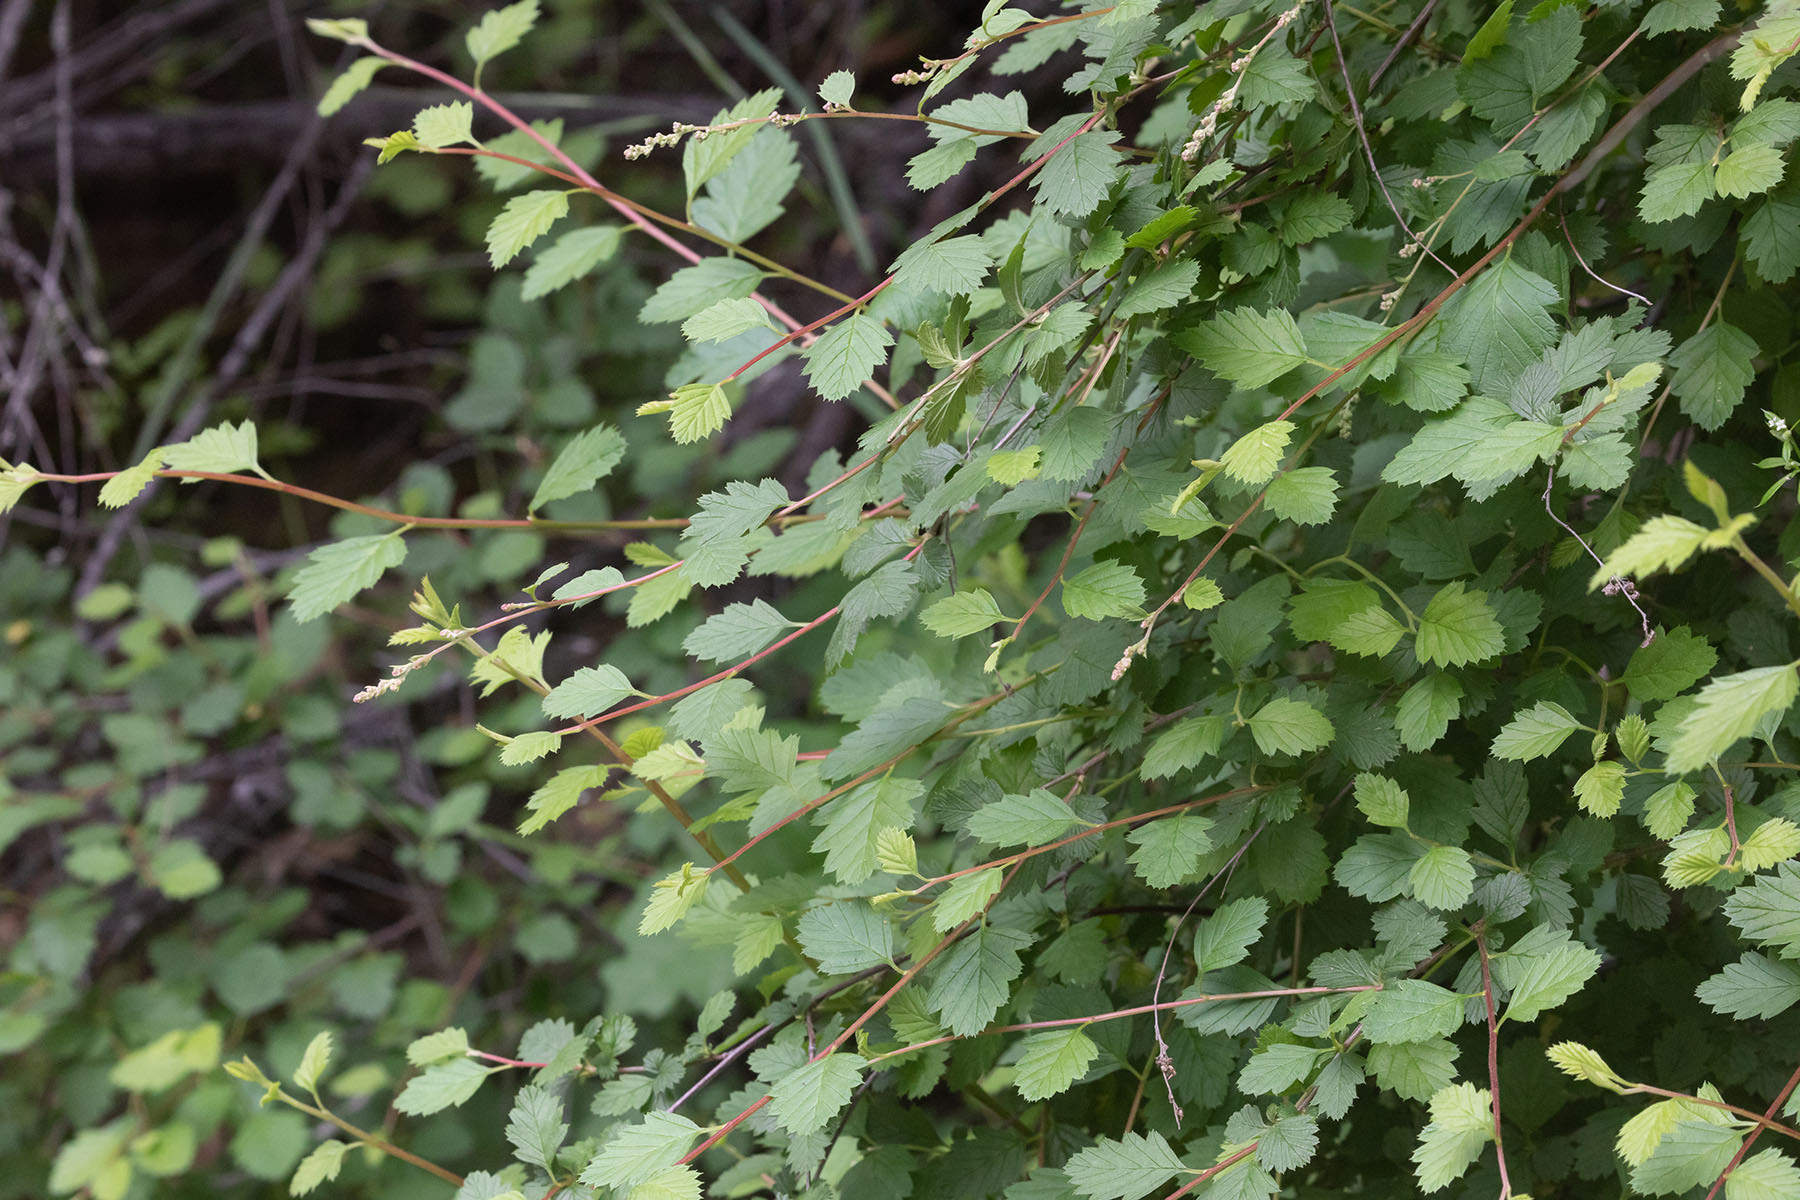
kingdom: Plantae
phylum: Tracheophyta
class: Magnoliopsida
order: Rosales
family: Rosaceae
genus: Holodiscus
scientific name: Holodiscus discolor
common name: Oceanspray
